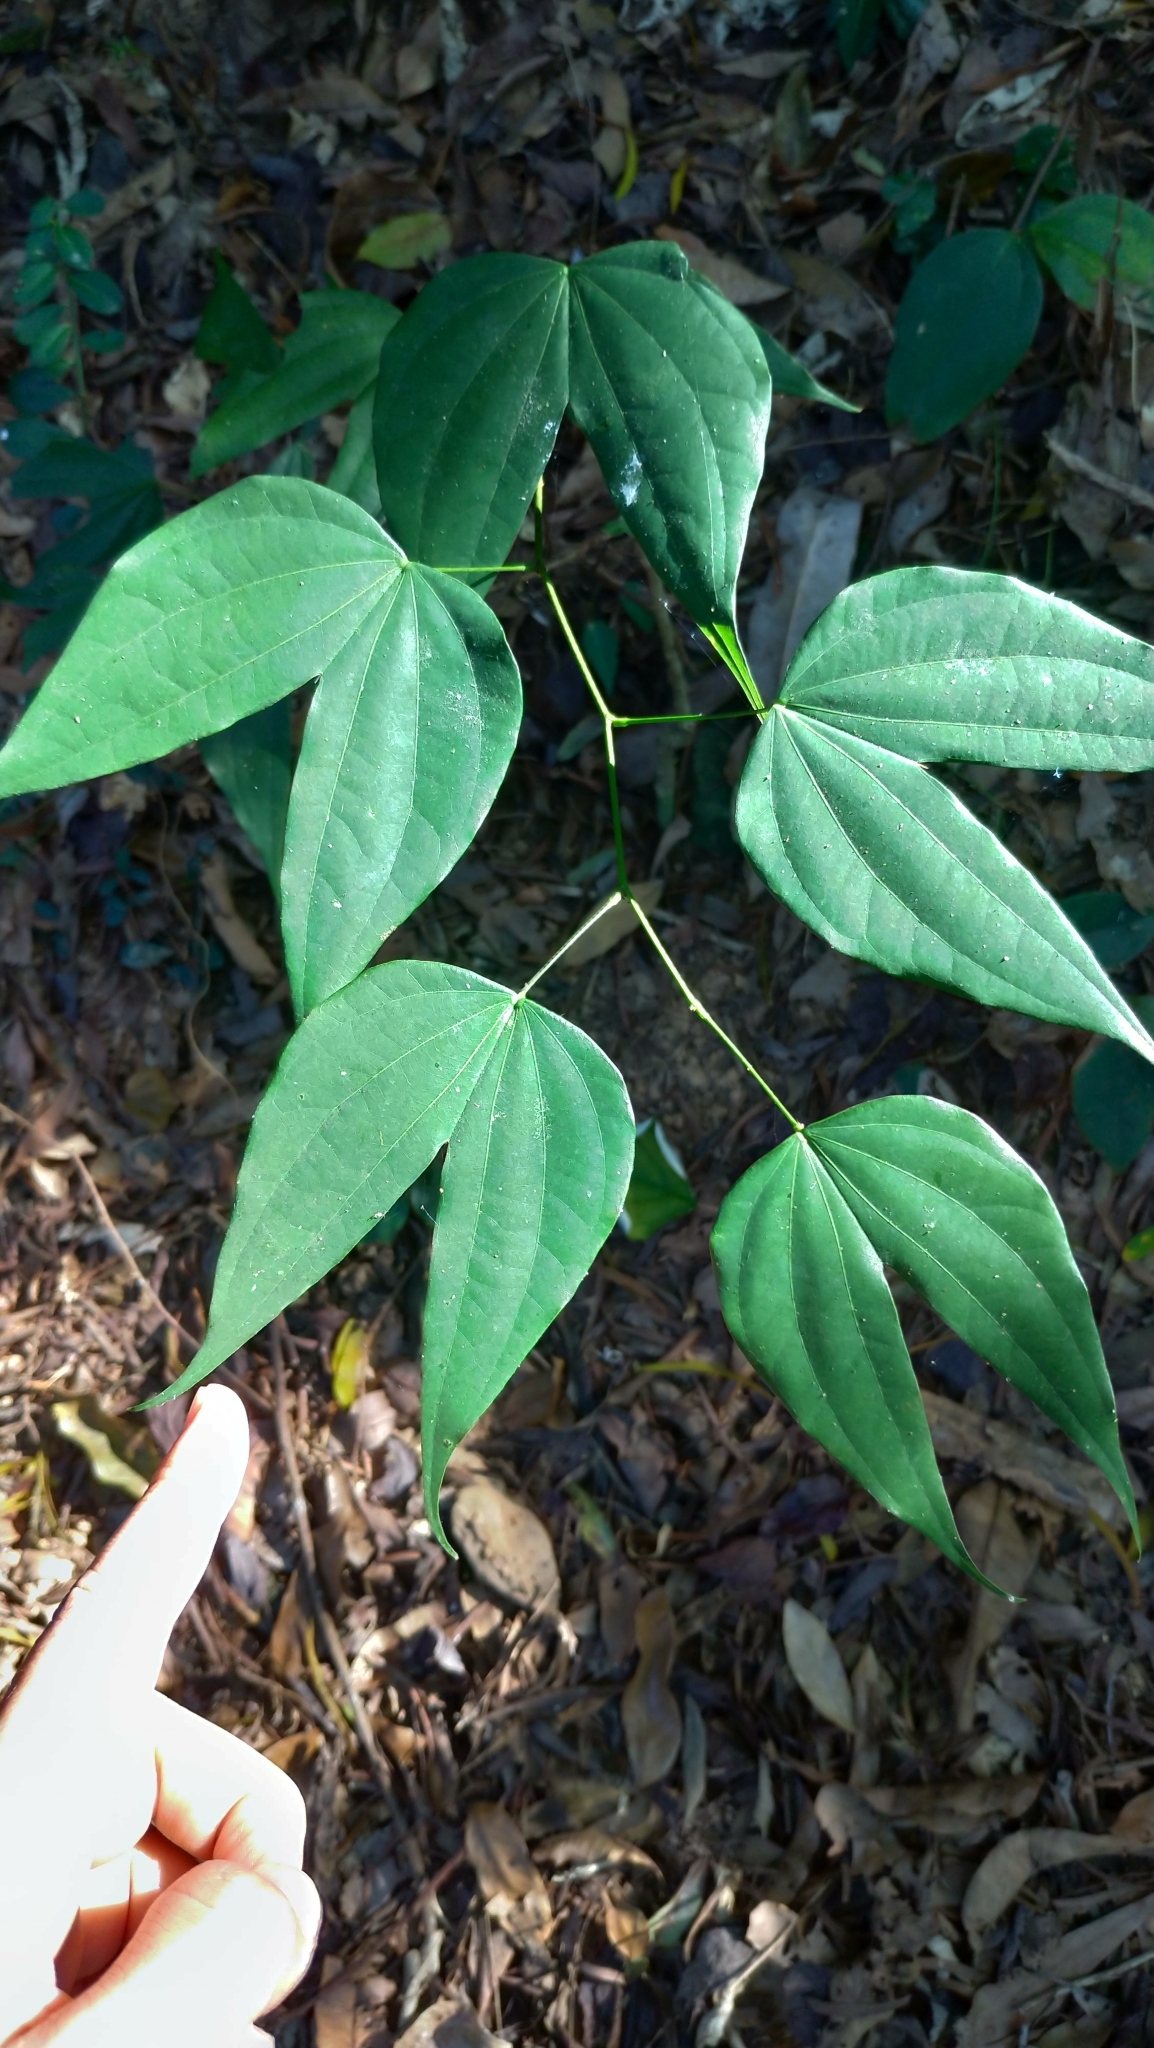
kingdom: Plantae
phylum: Tracheophyta
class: Magnoliopsida
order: Fabales
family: Fabaceae
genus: Phanera
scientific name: Phanera championii
